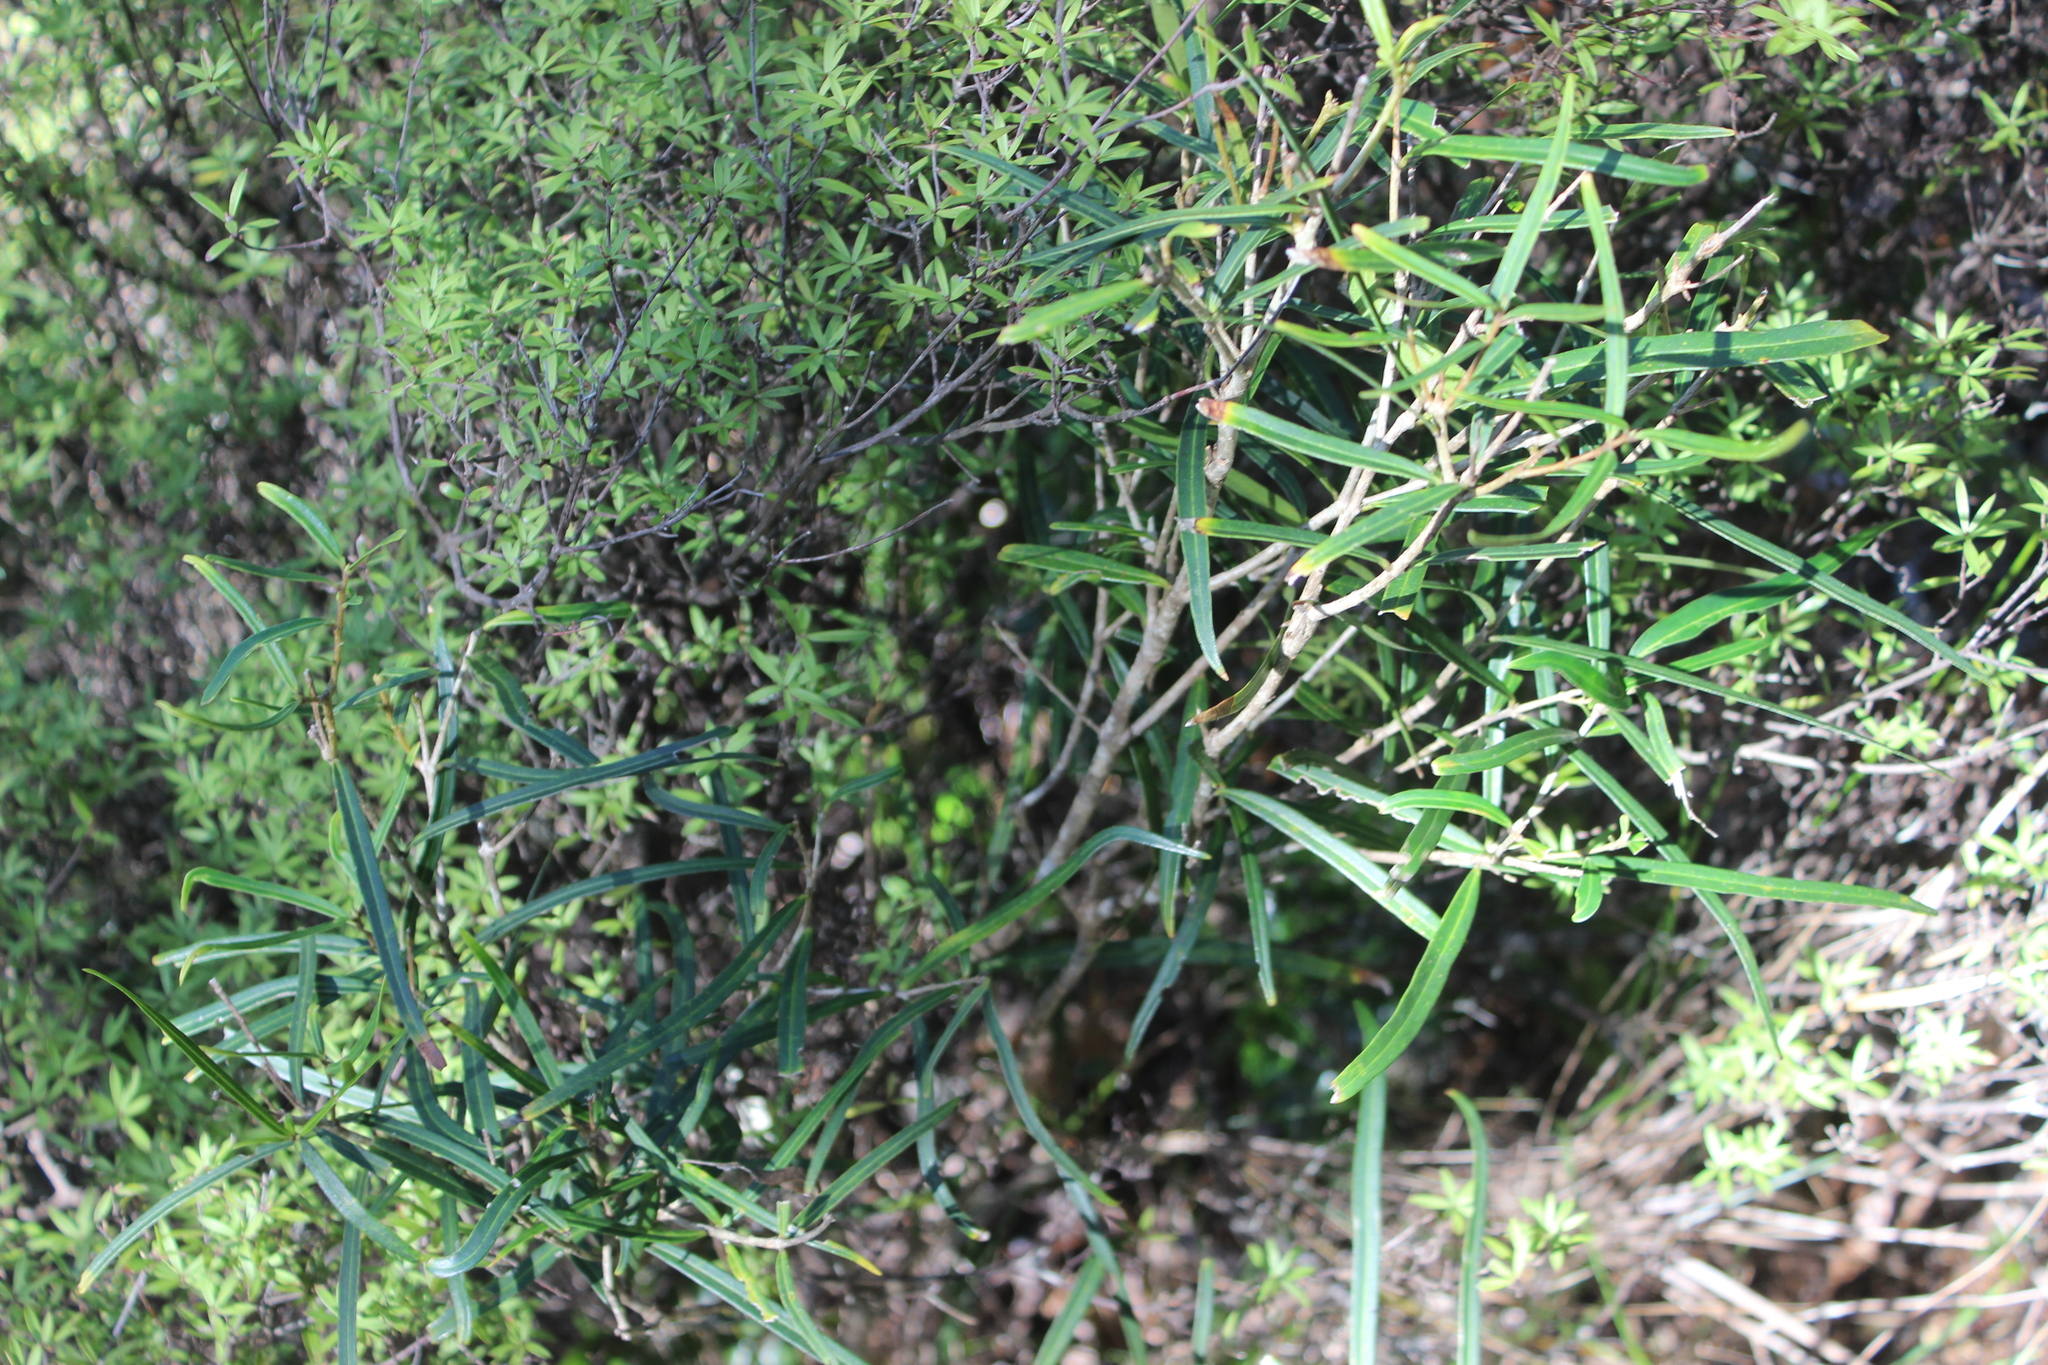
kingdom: Plantae
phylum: Tracheophyta
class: Magnoliopsida
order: Lamiales
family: Oleaceae
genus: Nestegis
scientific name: Nestegis cunninghamii
